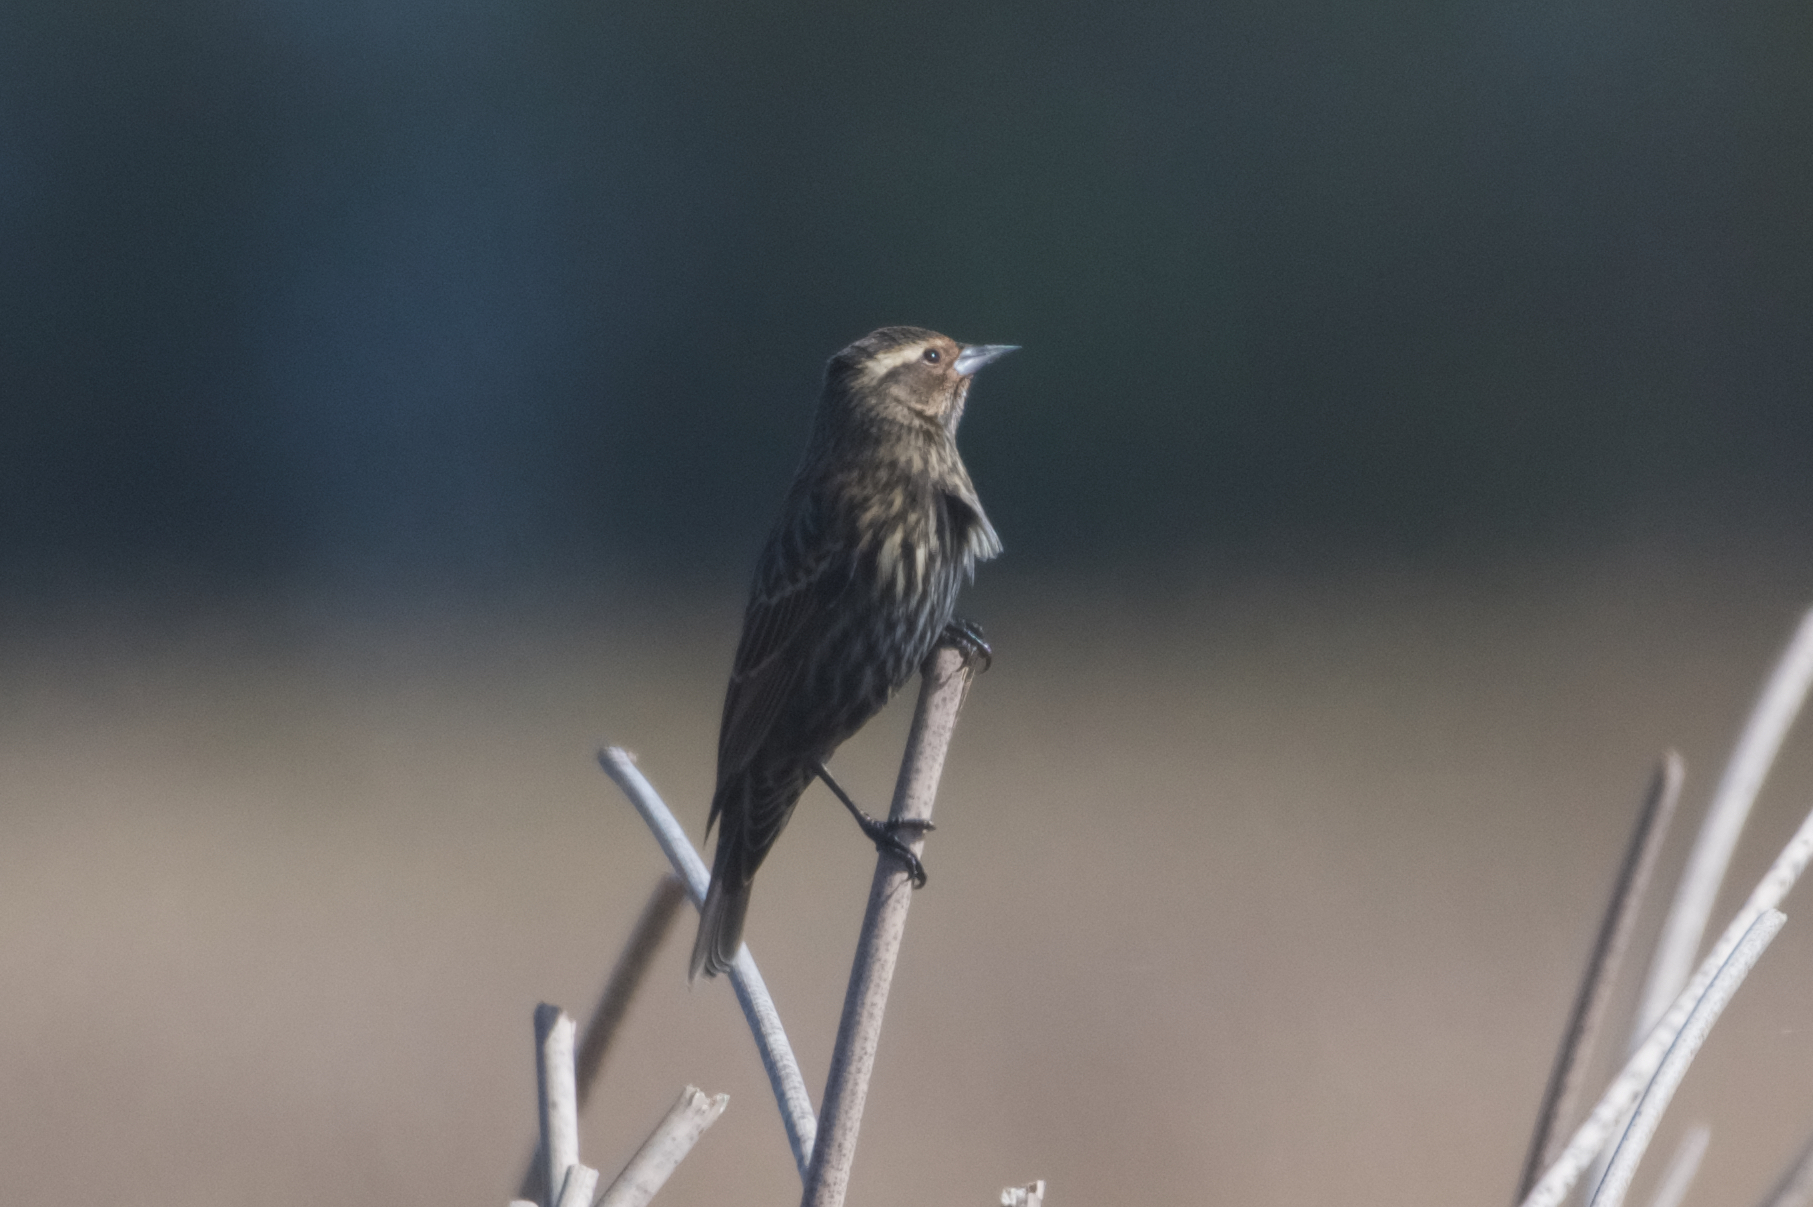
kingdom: Animalia
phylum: Chordata
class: Aves
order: Passeriformes
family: Icteridae
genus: Agelaius
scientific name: Agelaius phoeniceus
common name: Red-winged blackbird
